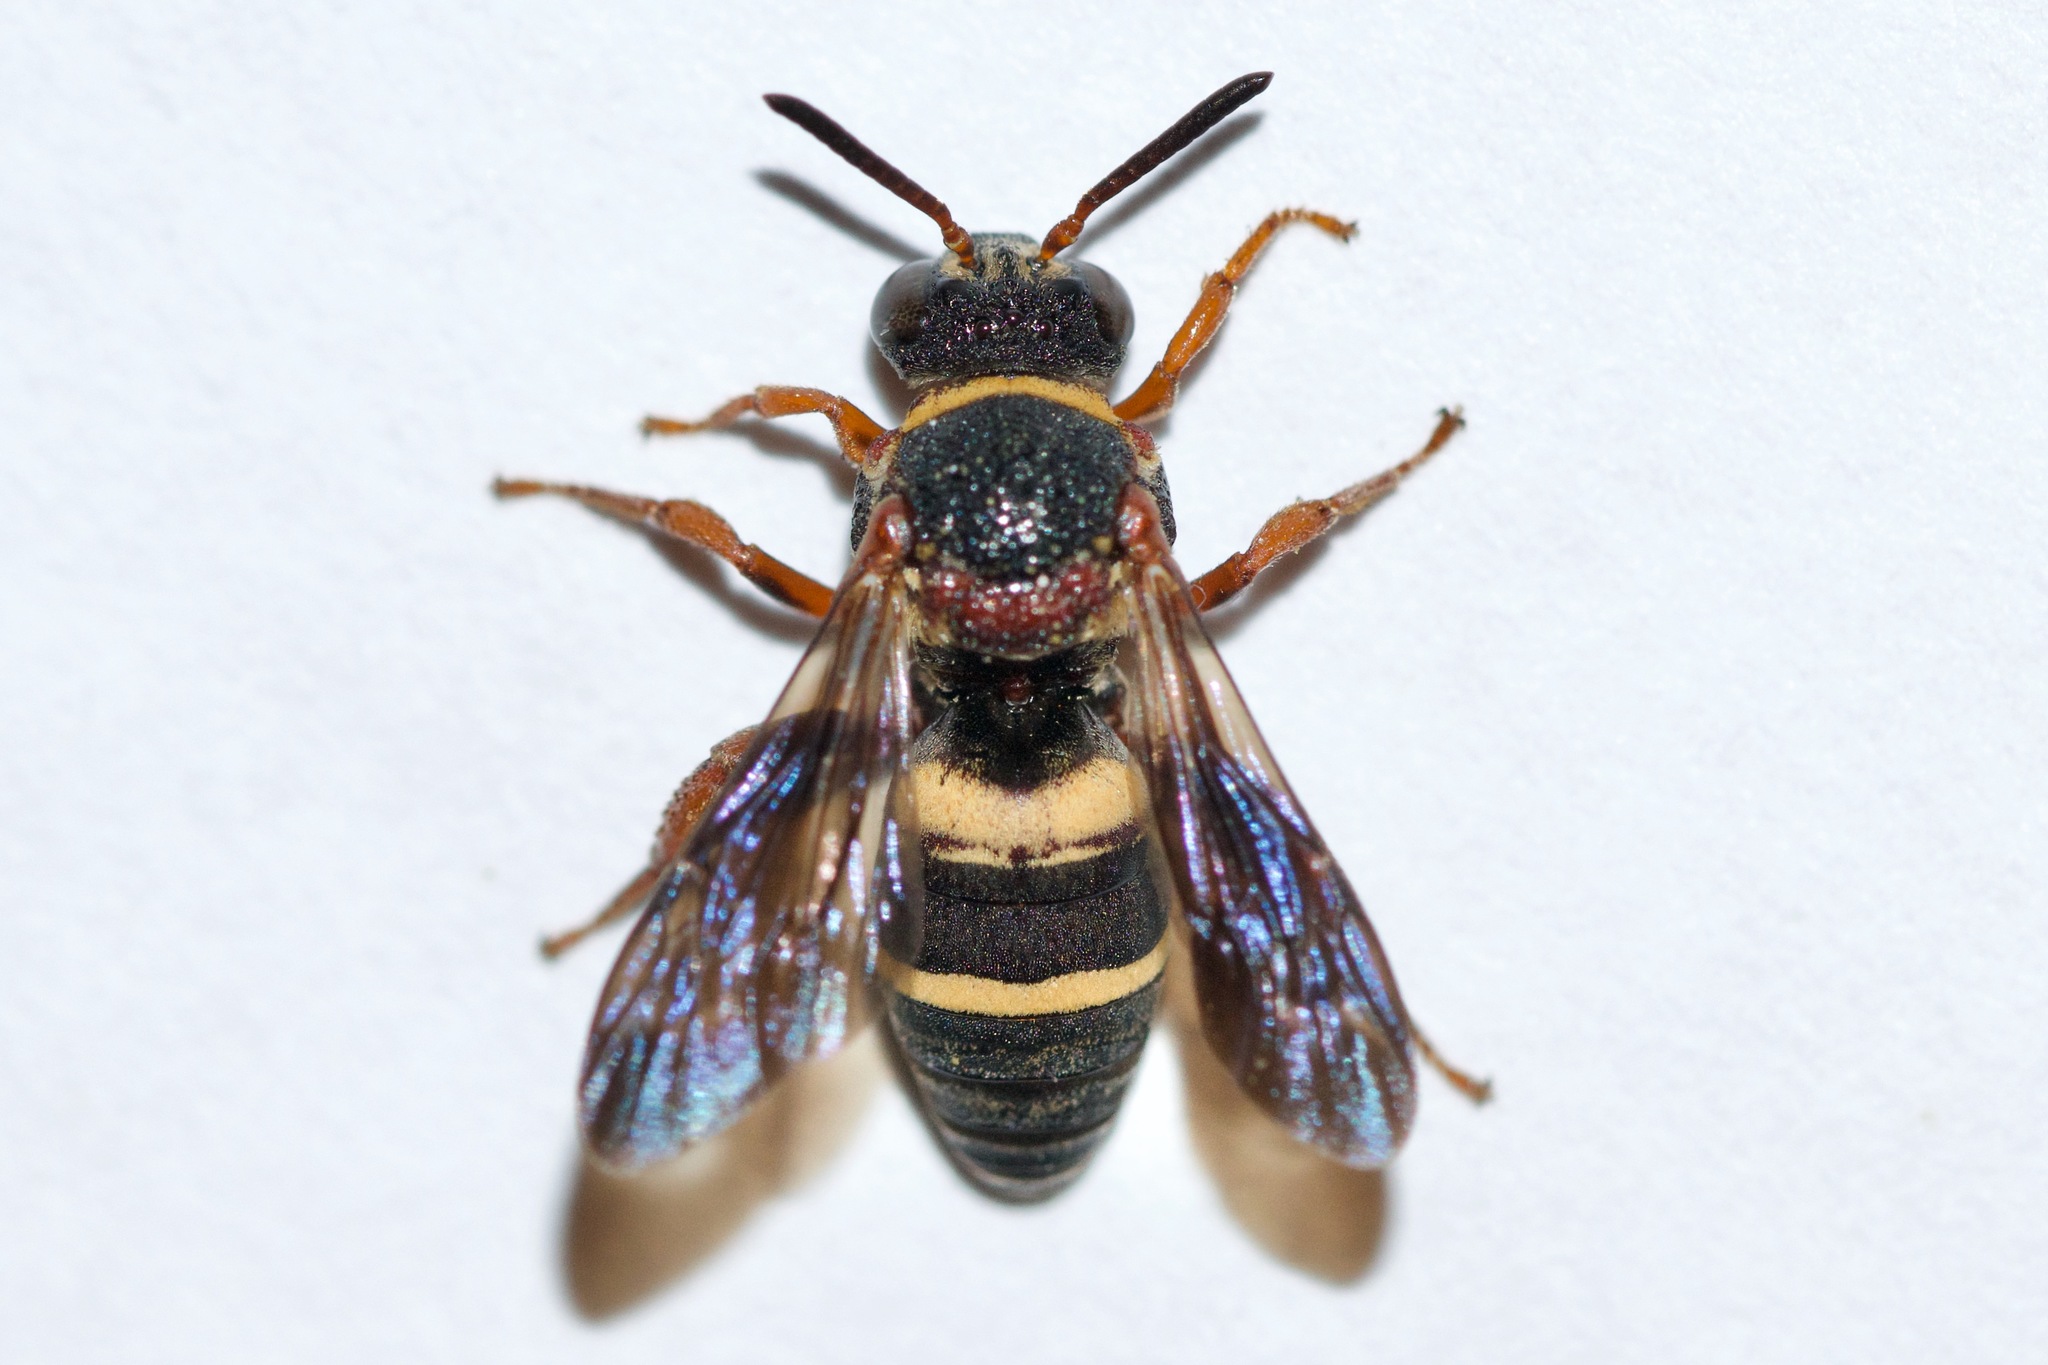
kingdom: Animalia
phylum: Arthropoda
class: Insecta
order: Hymenoptera
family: Apidae
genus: Epeolus
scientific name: Epeolus bifasciatus
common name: Two-banded cellophane-cuckoo
